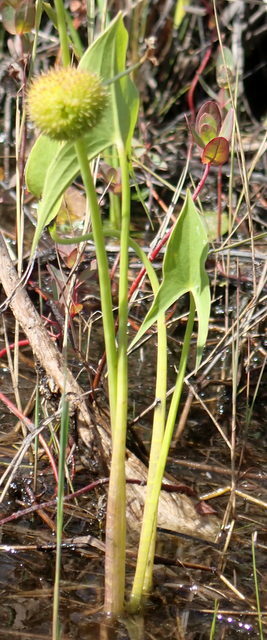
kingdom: Plantae
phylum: Tracheophyta
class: Liliopsida
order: Alismatales
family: Alismataceae
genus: Sagittaria
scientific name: Sagittaria engelmanniana
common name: Acid-water arrowhead
